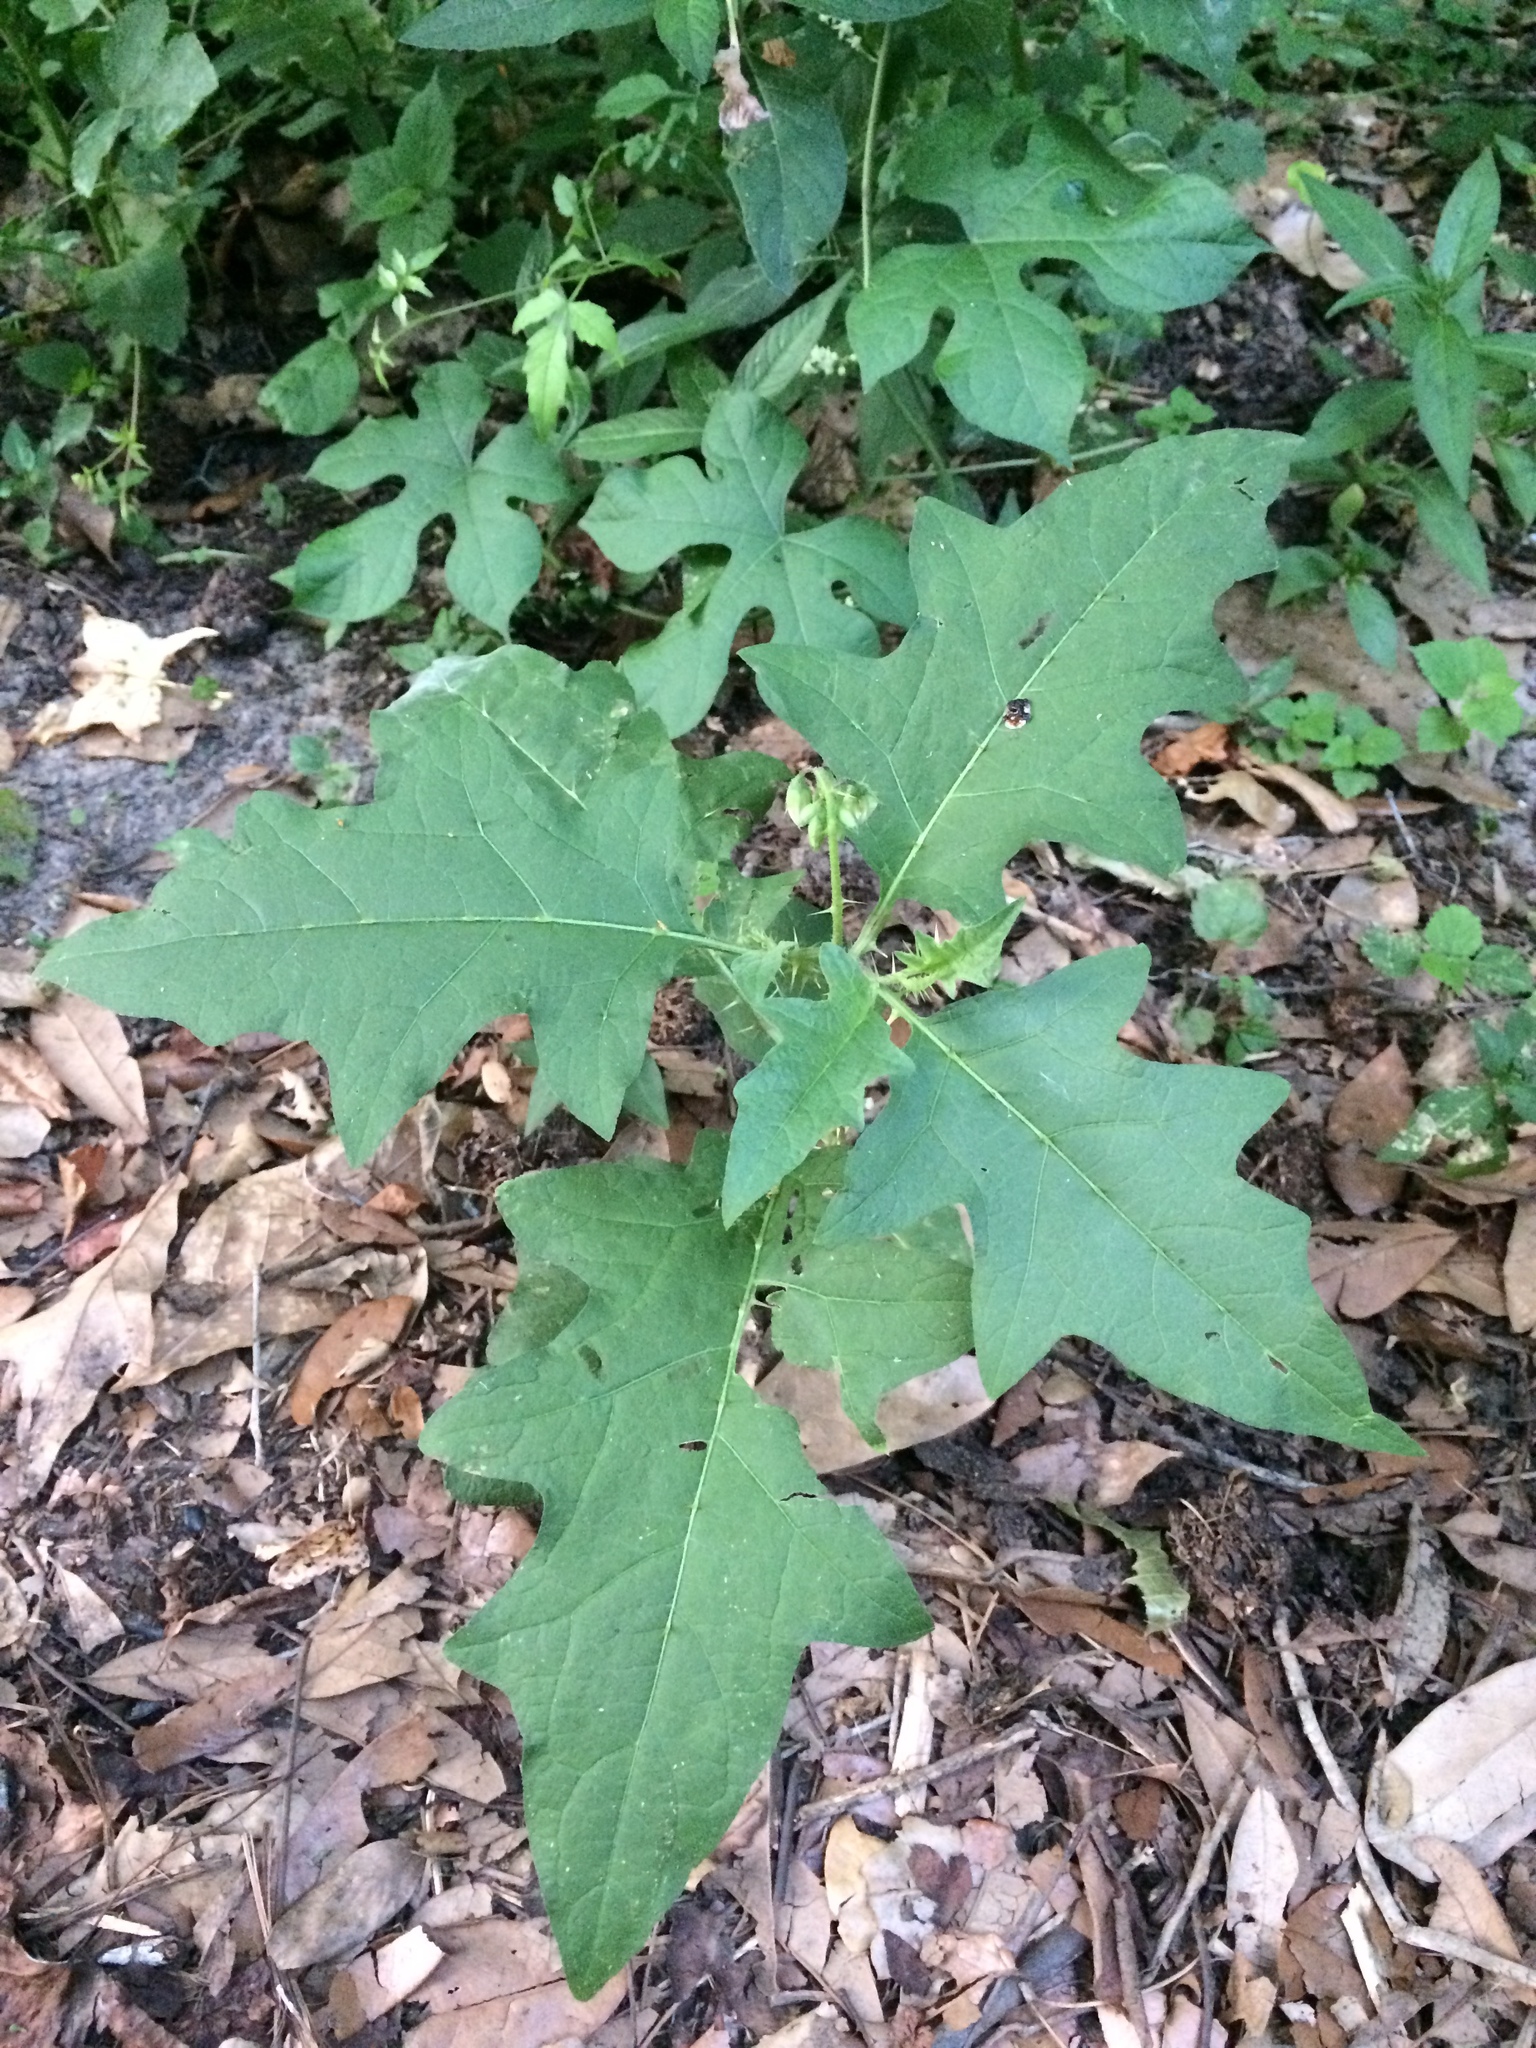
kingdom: Plantae
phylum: Tracheophyta
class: Magnoliopsida
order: Solanales
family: Solanaceae
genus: Solanum
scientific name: Solanum carolinense
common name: Horse-nettle
